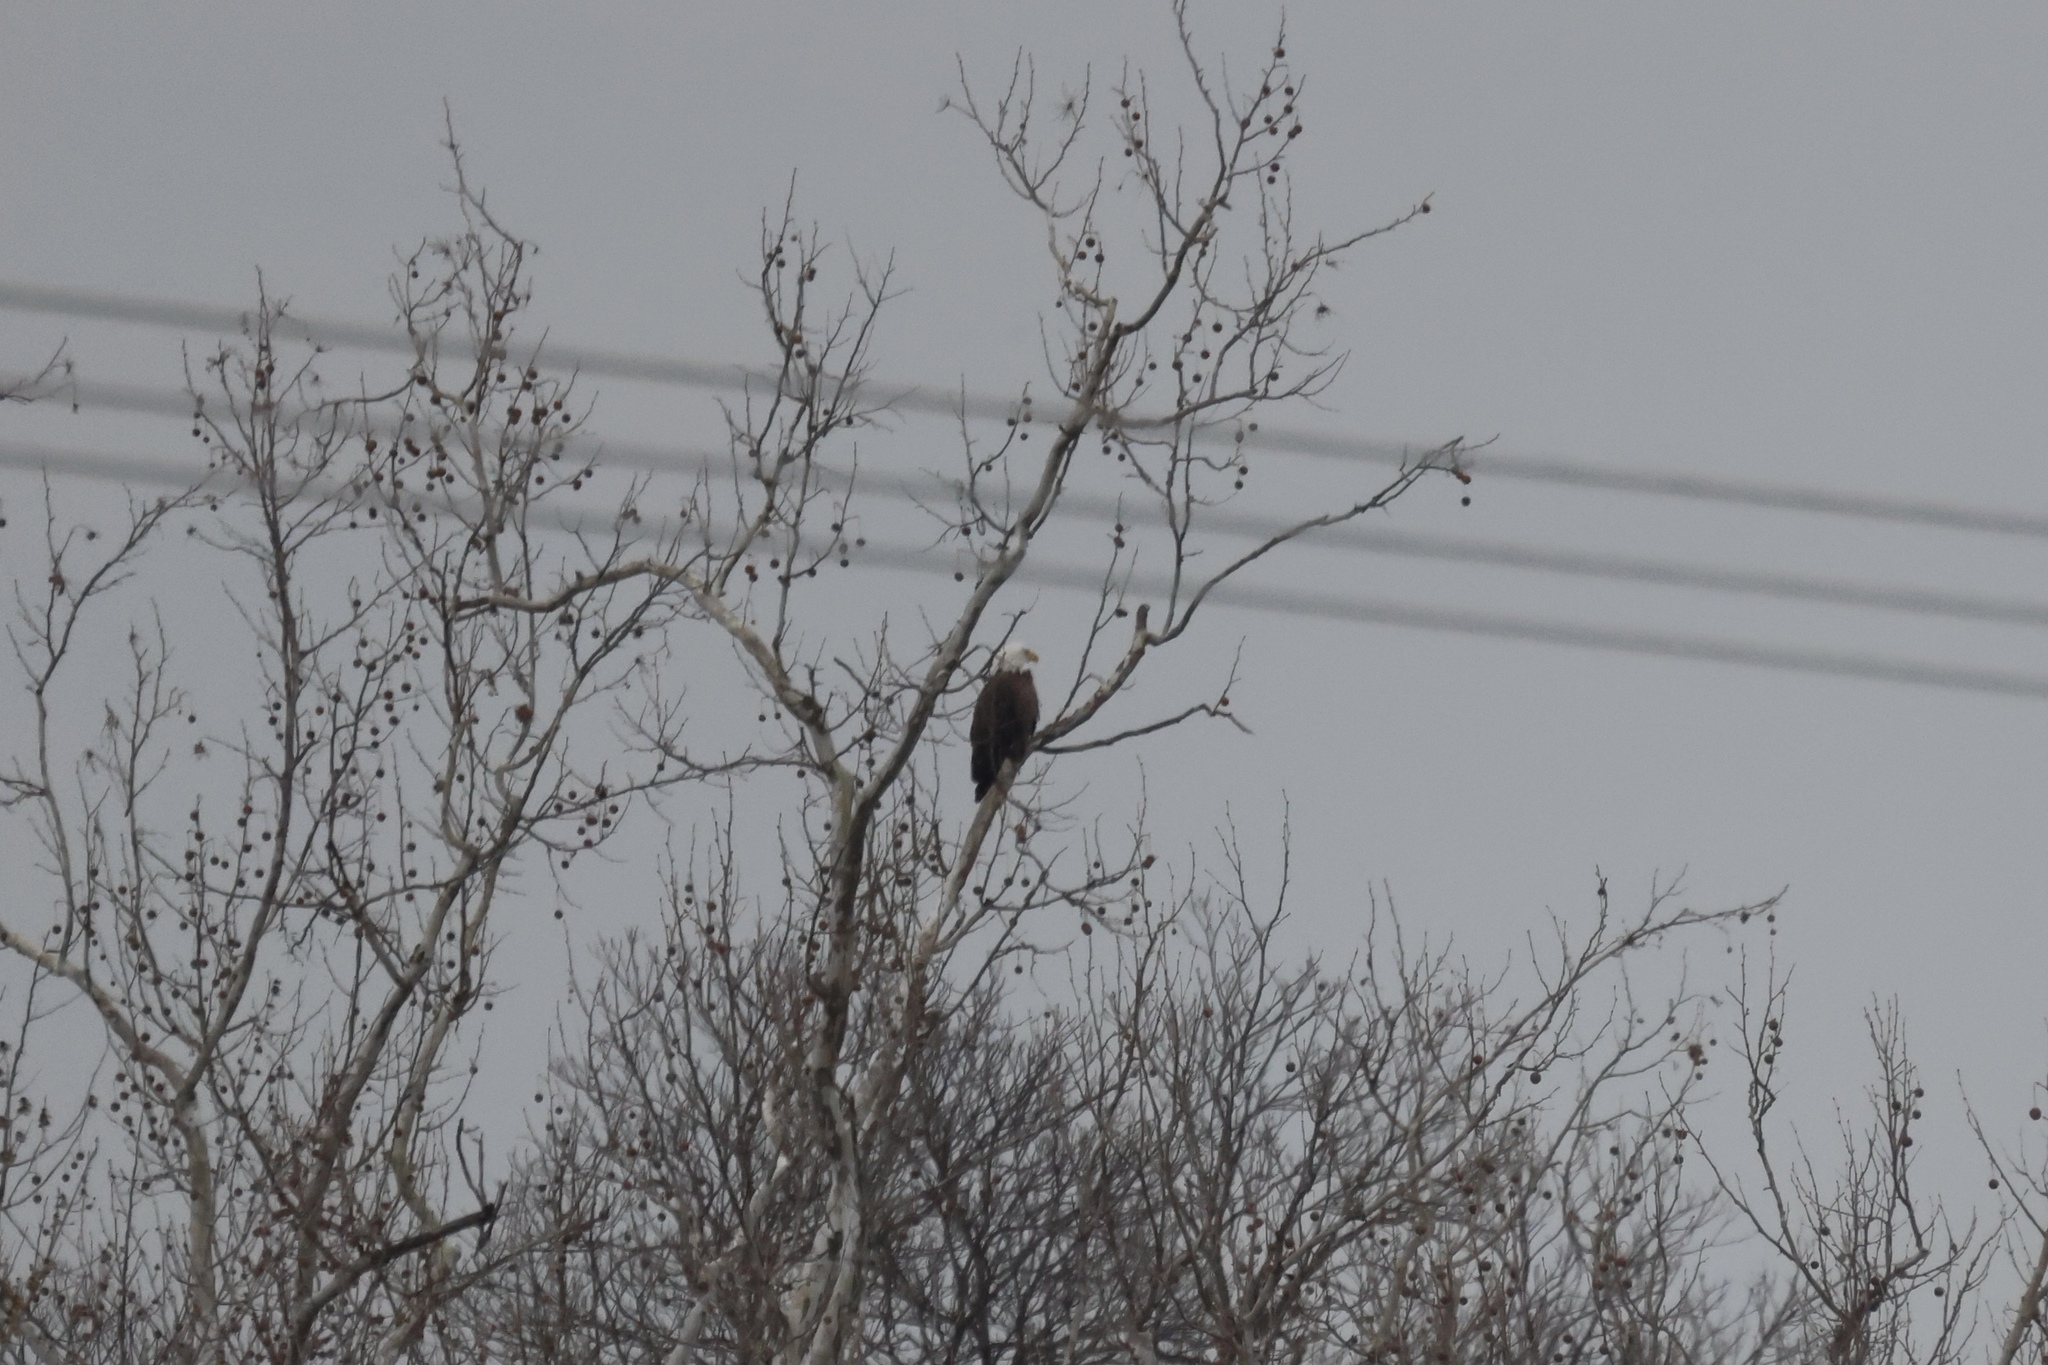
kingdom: Animalia
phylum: Chordata
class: Aves
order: Accipitriformes
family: Accipitridae
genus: Haliaeetus
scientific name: Haliaeetus leucocephalus
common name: Bald eagle
